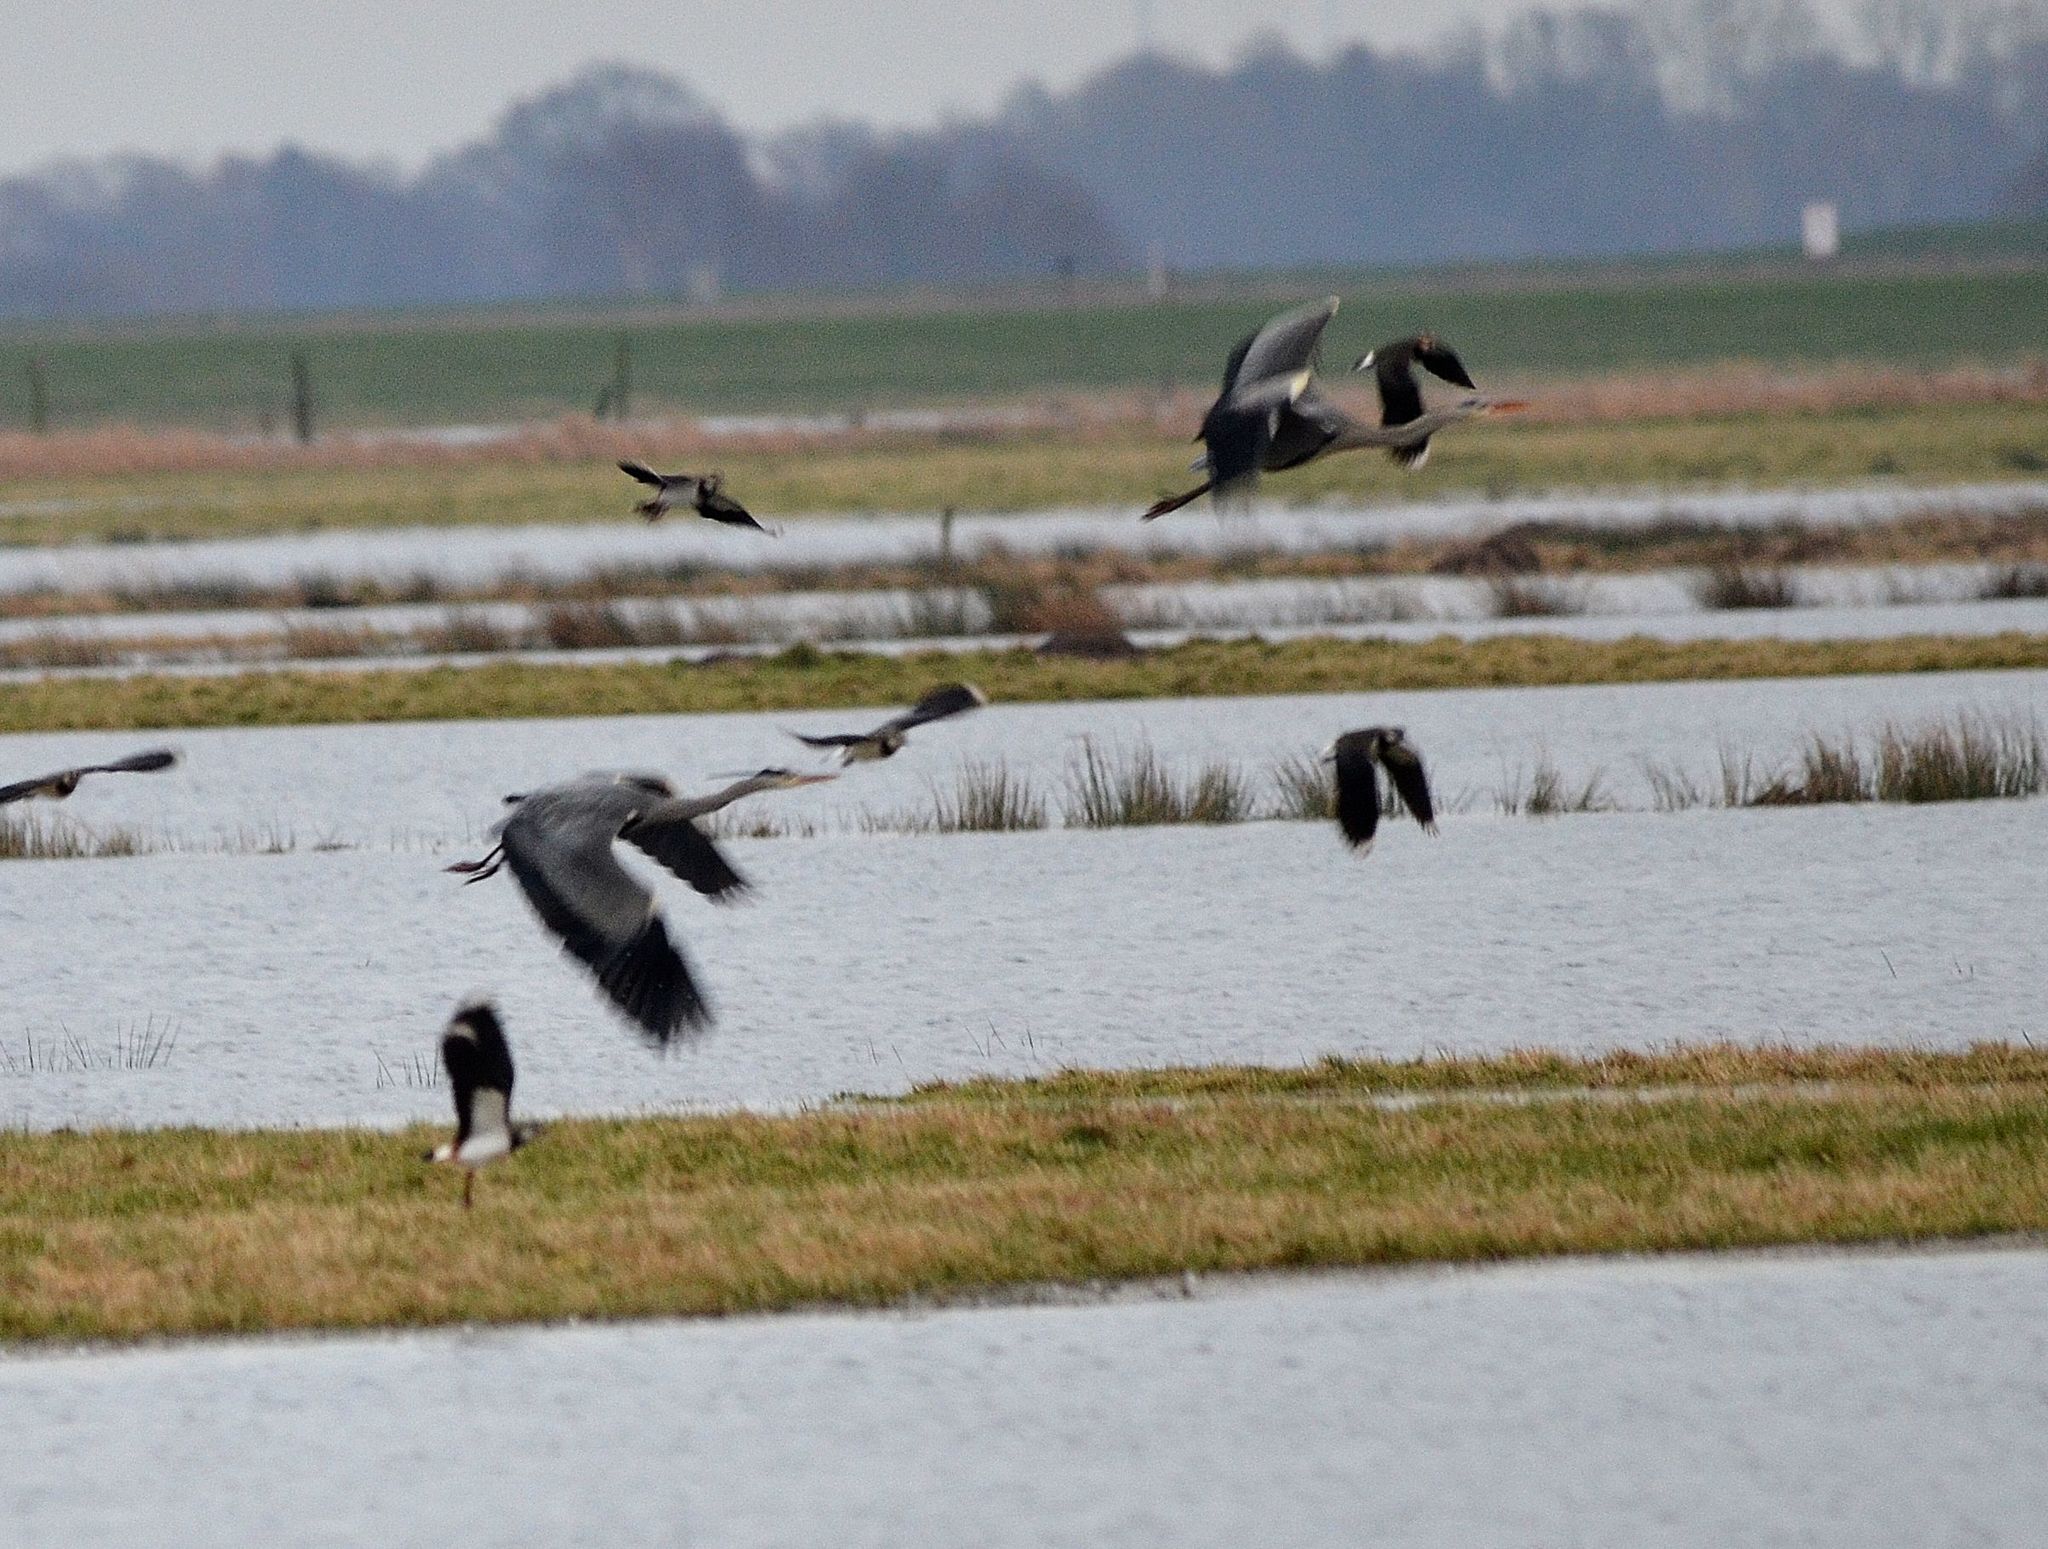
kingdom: Animalia
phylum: Chordata
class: Aves
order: Pelecaniformes
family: Ardeidae
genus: Ardea
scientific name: Ardea cinerea
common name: Grey heron
